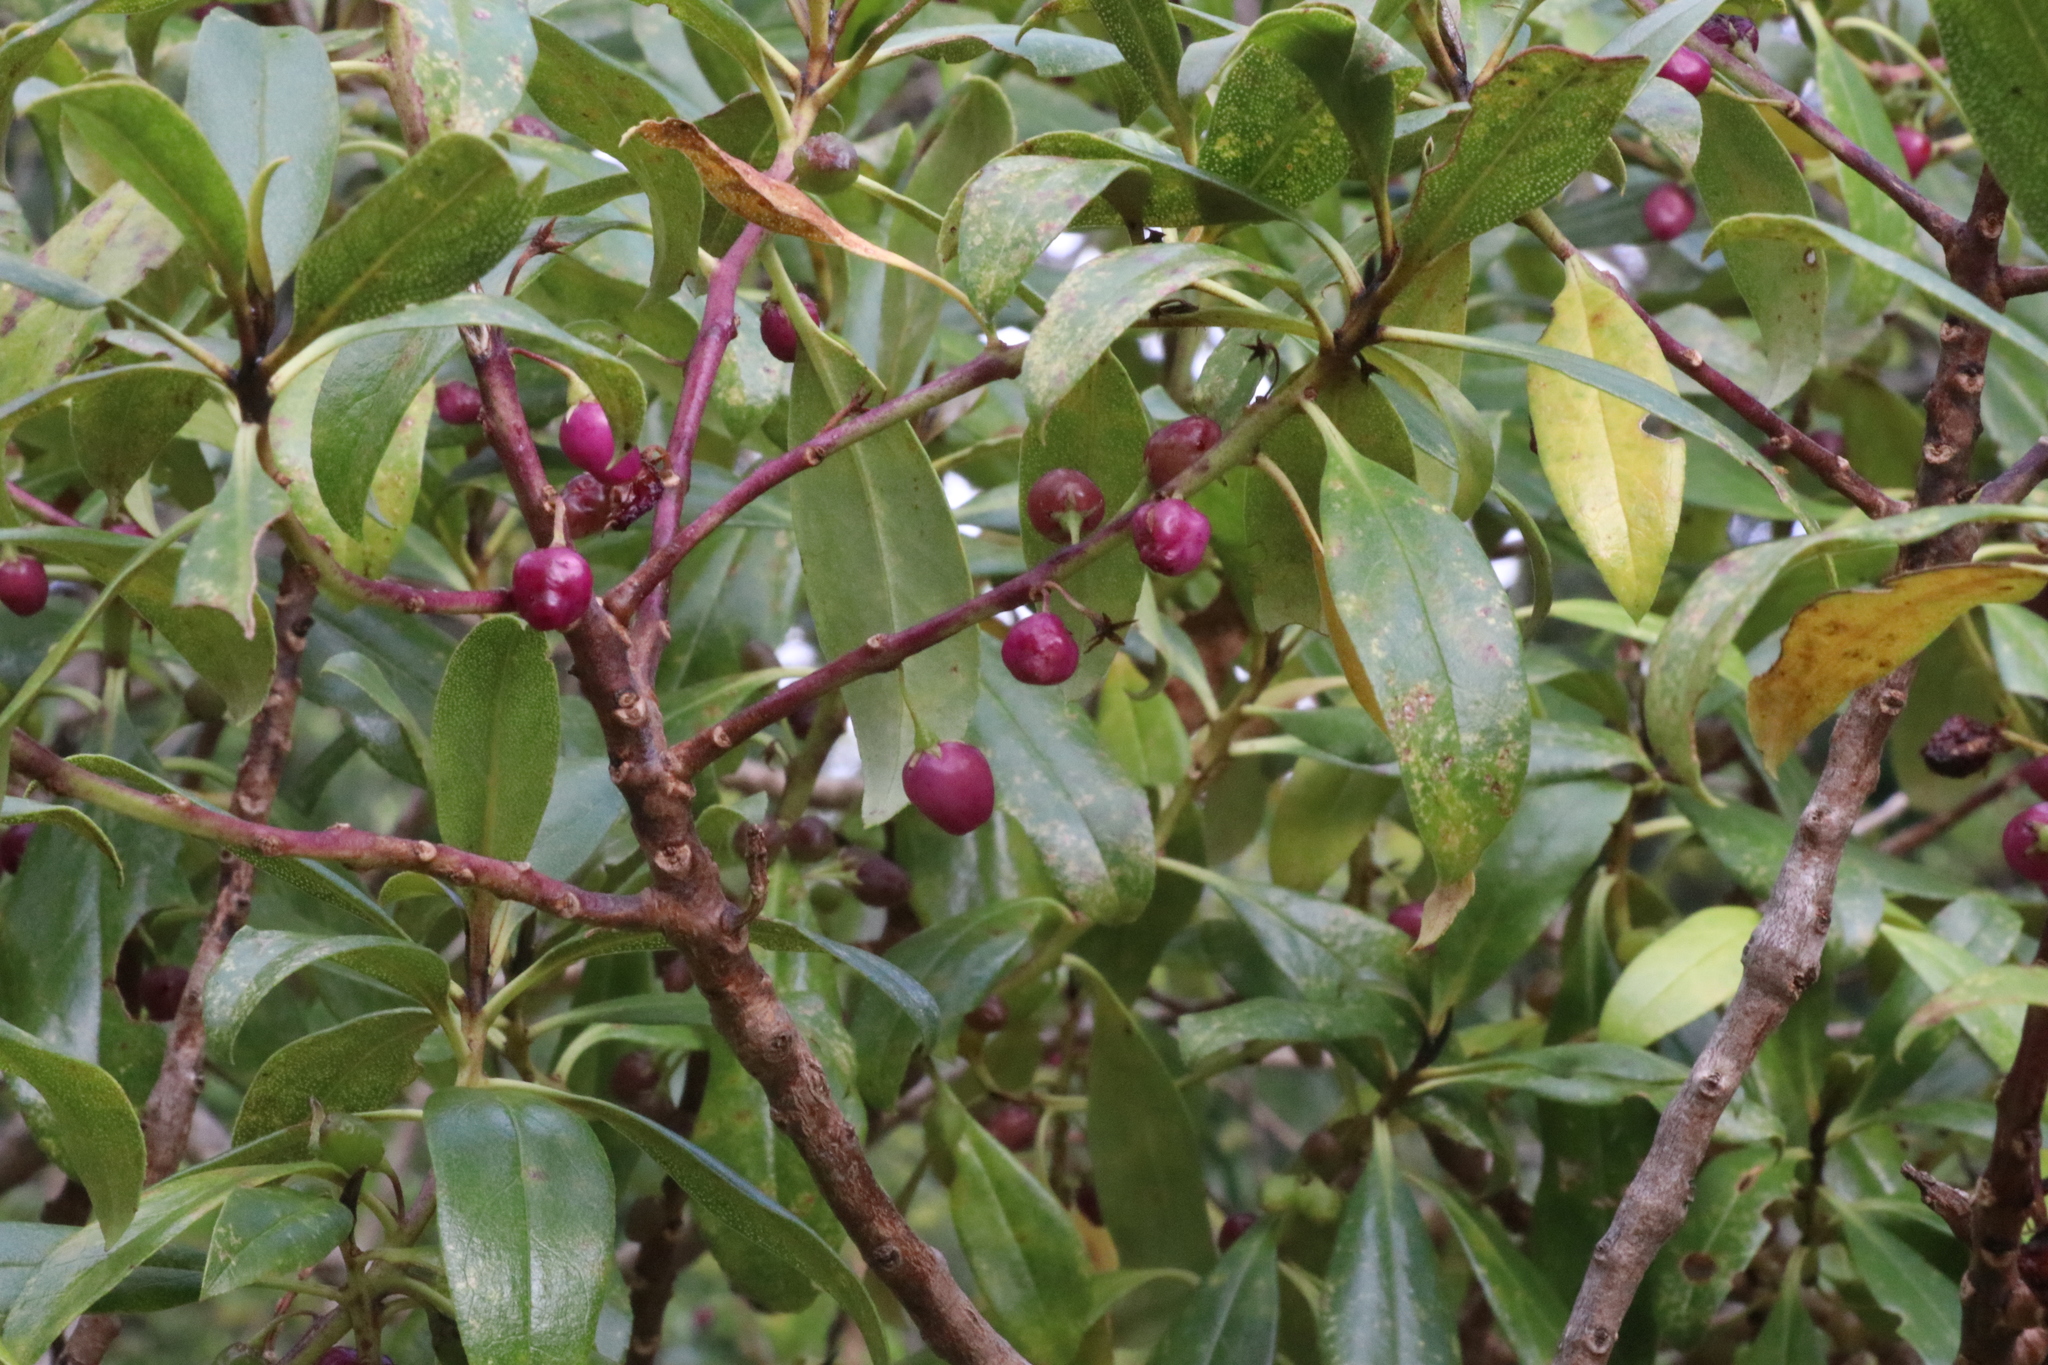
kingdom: Plantae
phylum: Tracheophyta
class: Magnoliopsida
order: Lamiales
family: Scrophulariaceae
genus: Myoporum
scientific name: Myoporum laetum
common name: Ngaio tree
